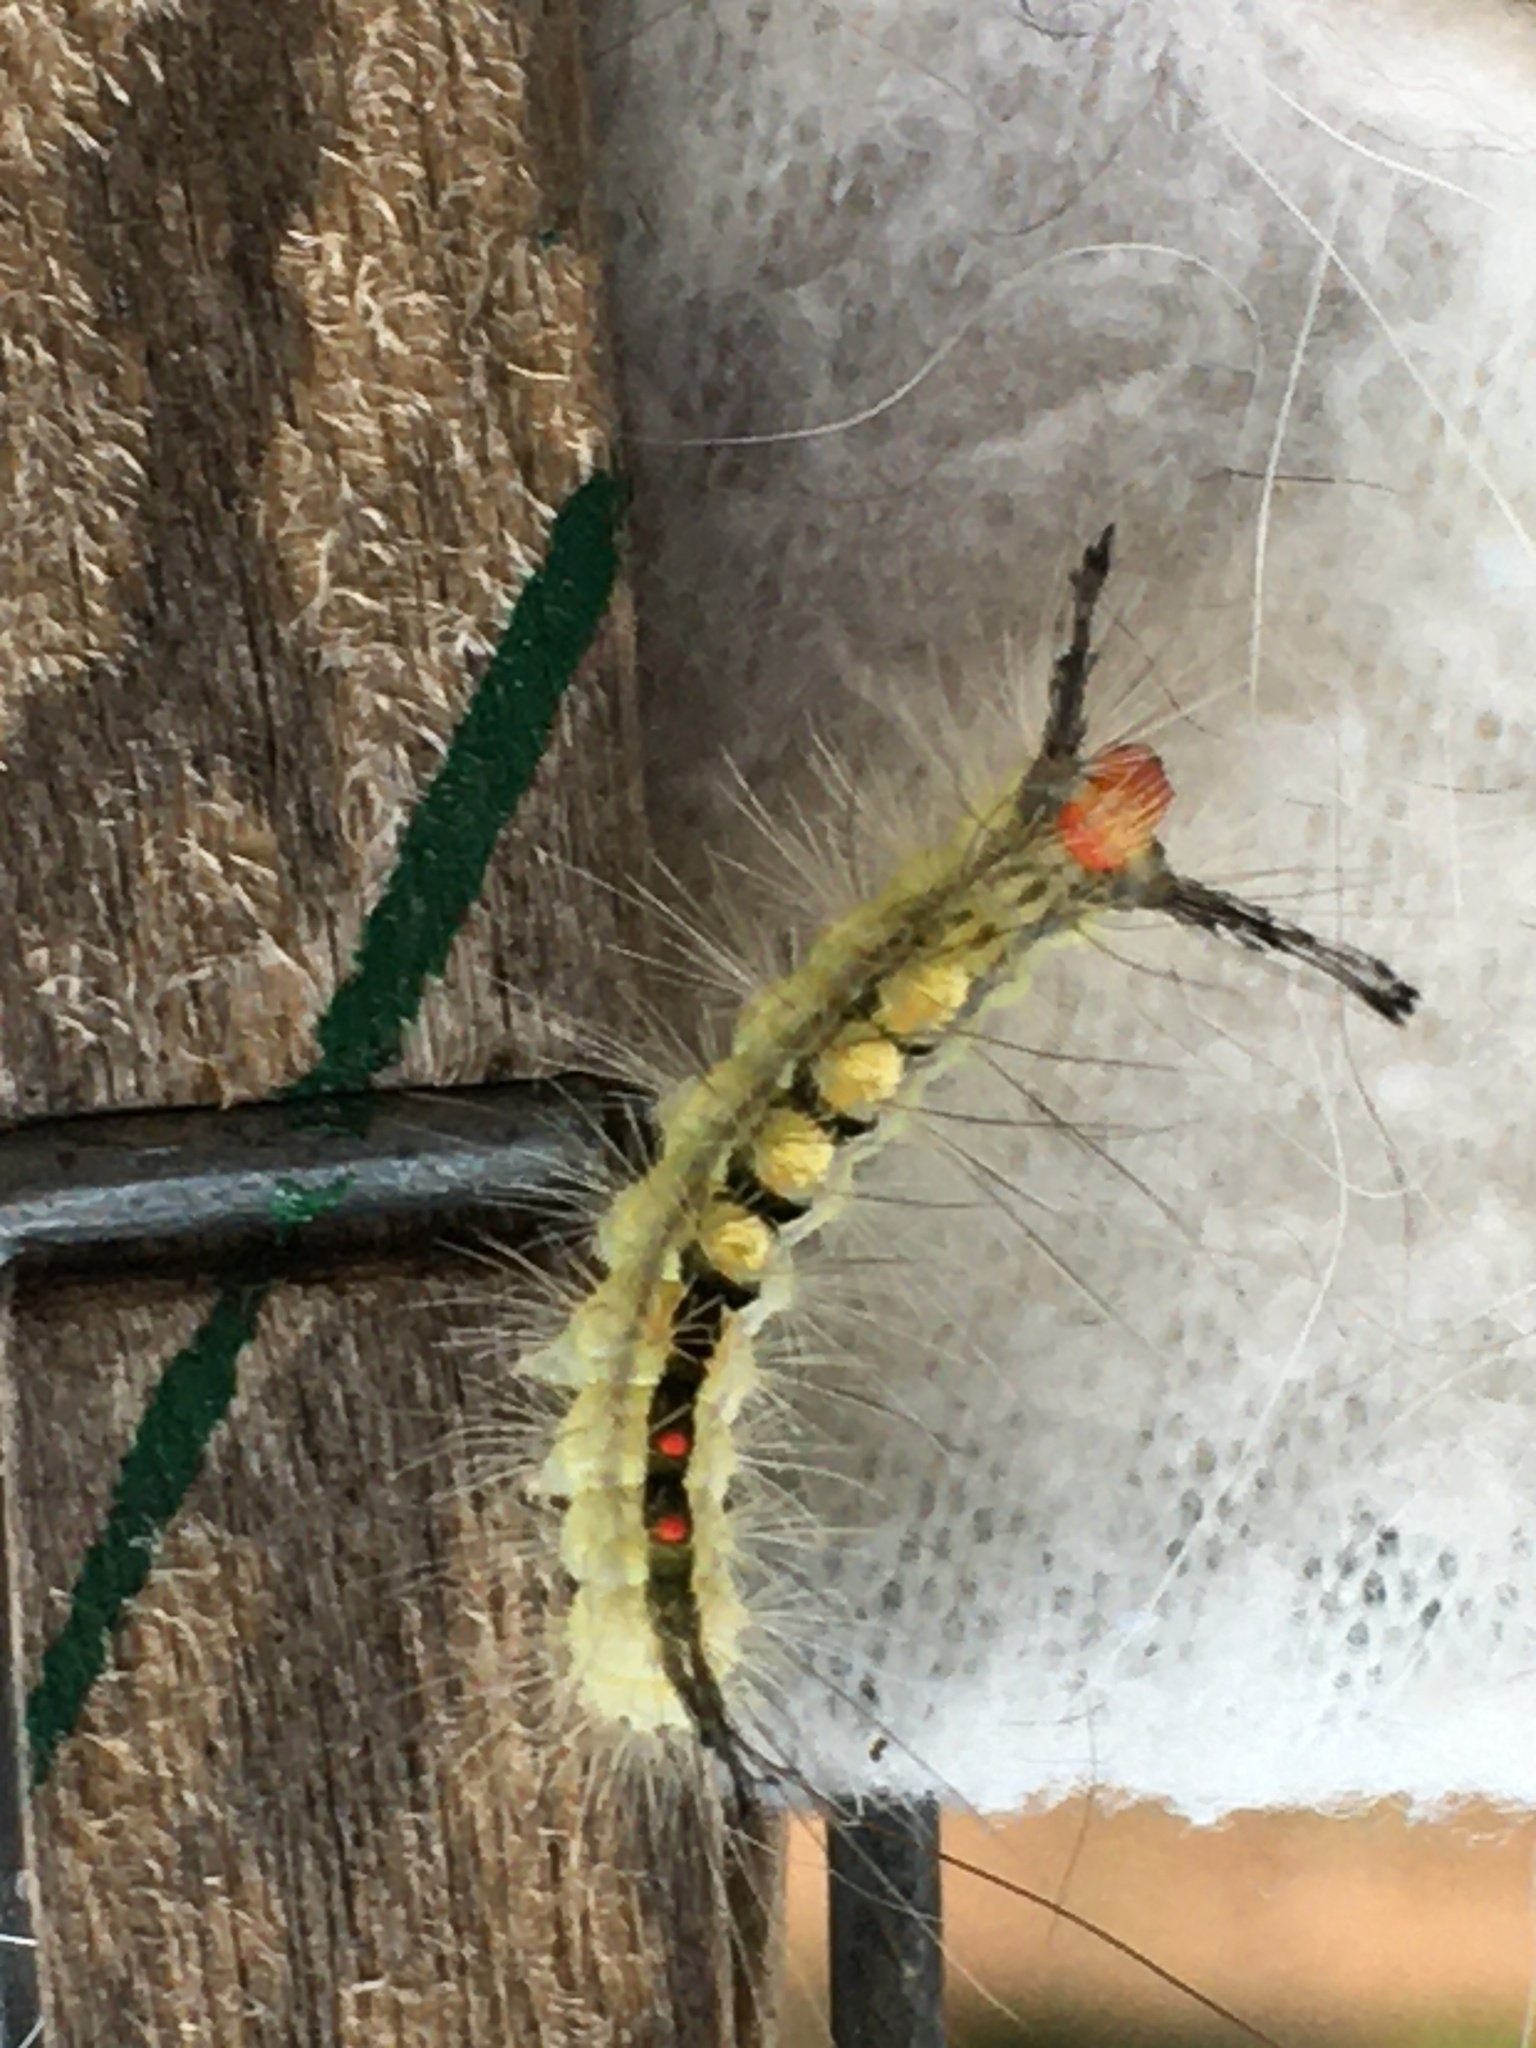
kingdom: Animalia
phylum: Arthropoda
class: Insecta
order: Lepidoptera
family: Erebidae
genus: Orgyia
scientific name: Orgyia leucostigma
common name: White-marked tussock moth
